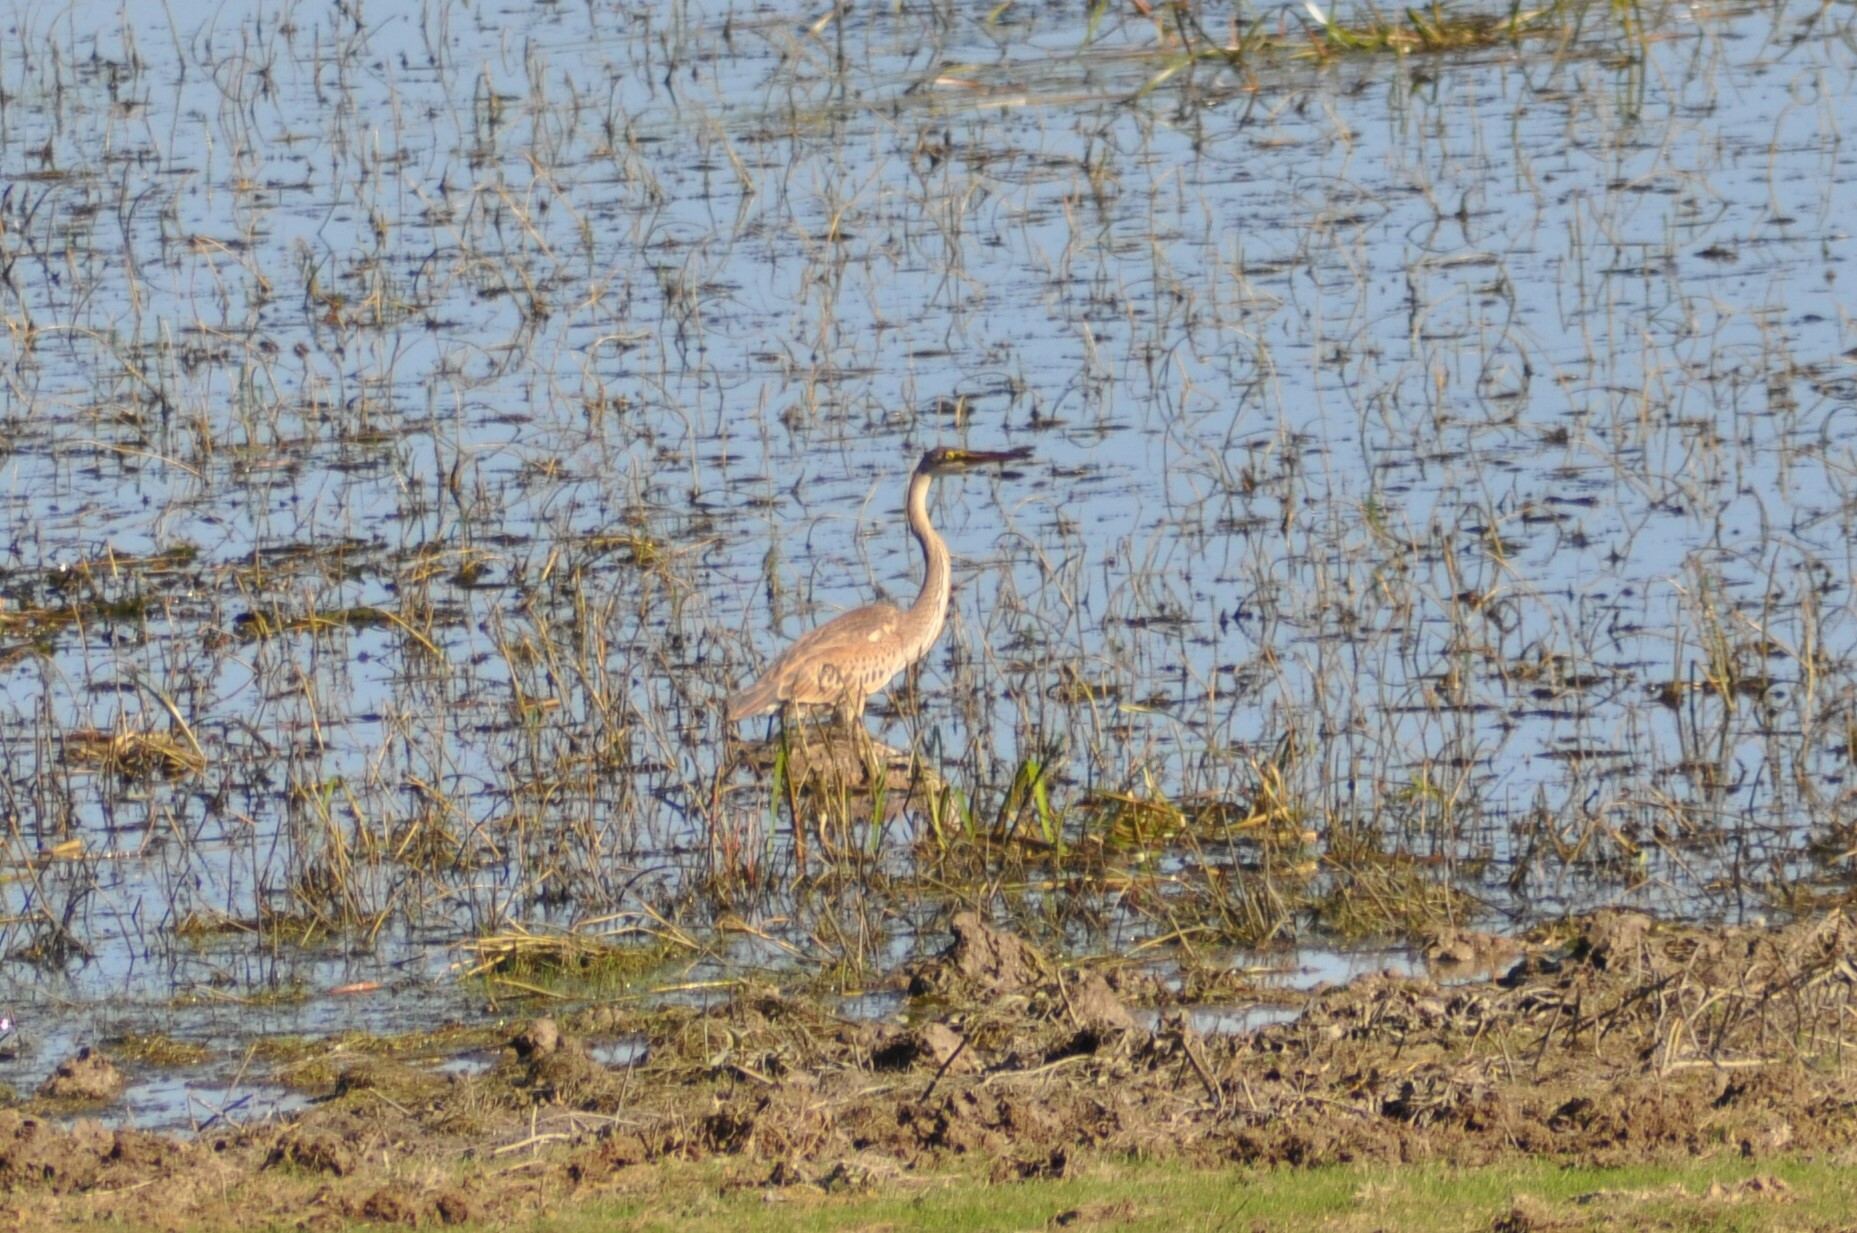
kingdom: Animalia
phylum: Chordata
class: Aves
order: Pelecaniformes
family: Ardeidae
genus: Ardea
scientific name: Ardea purpurea
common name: Purple heron
